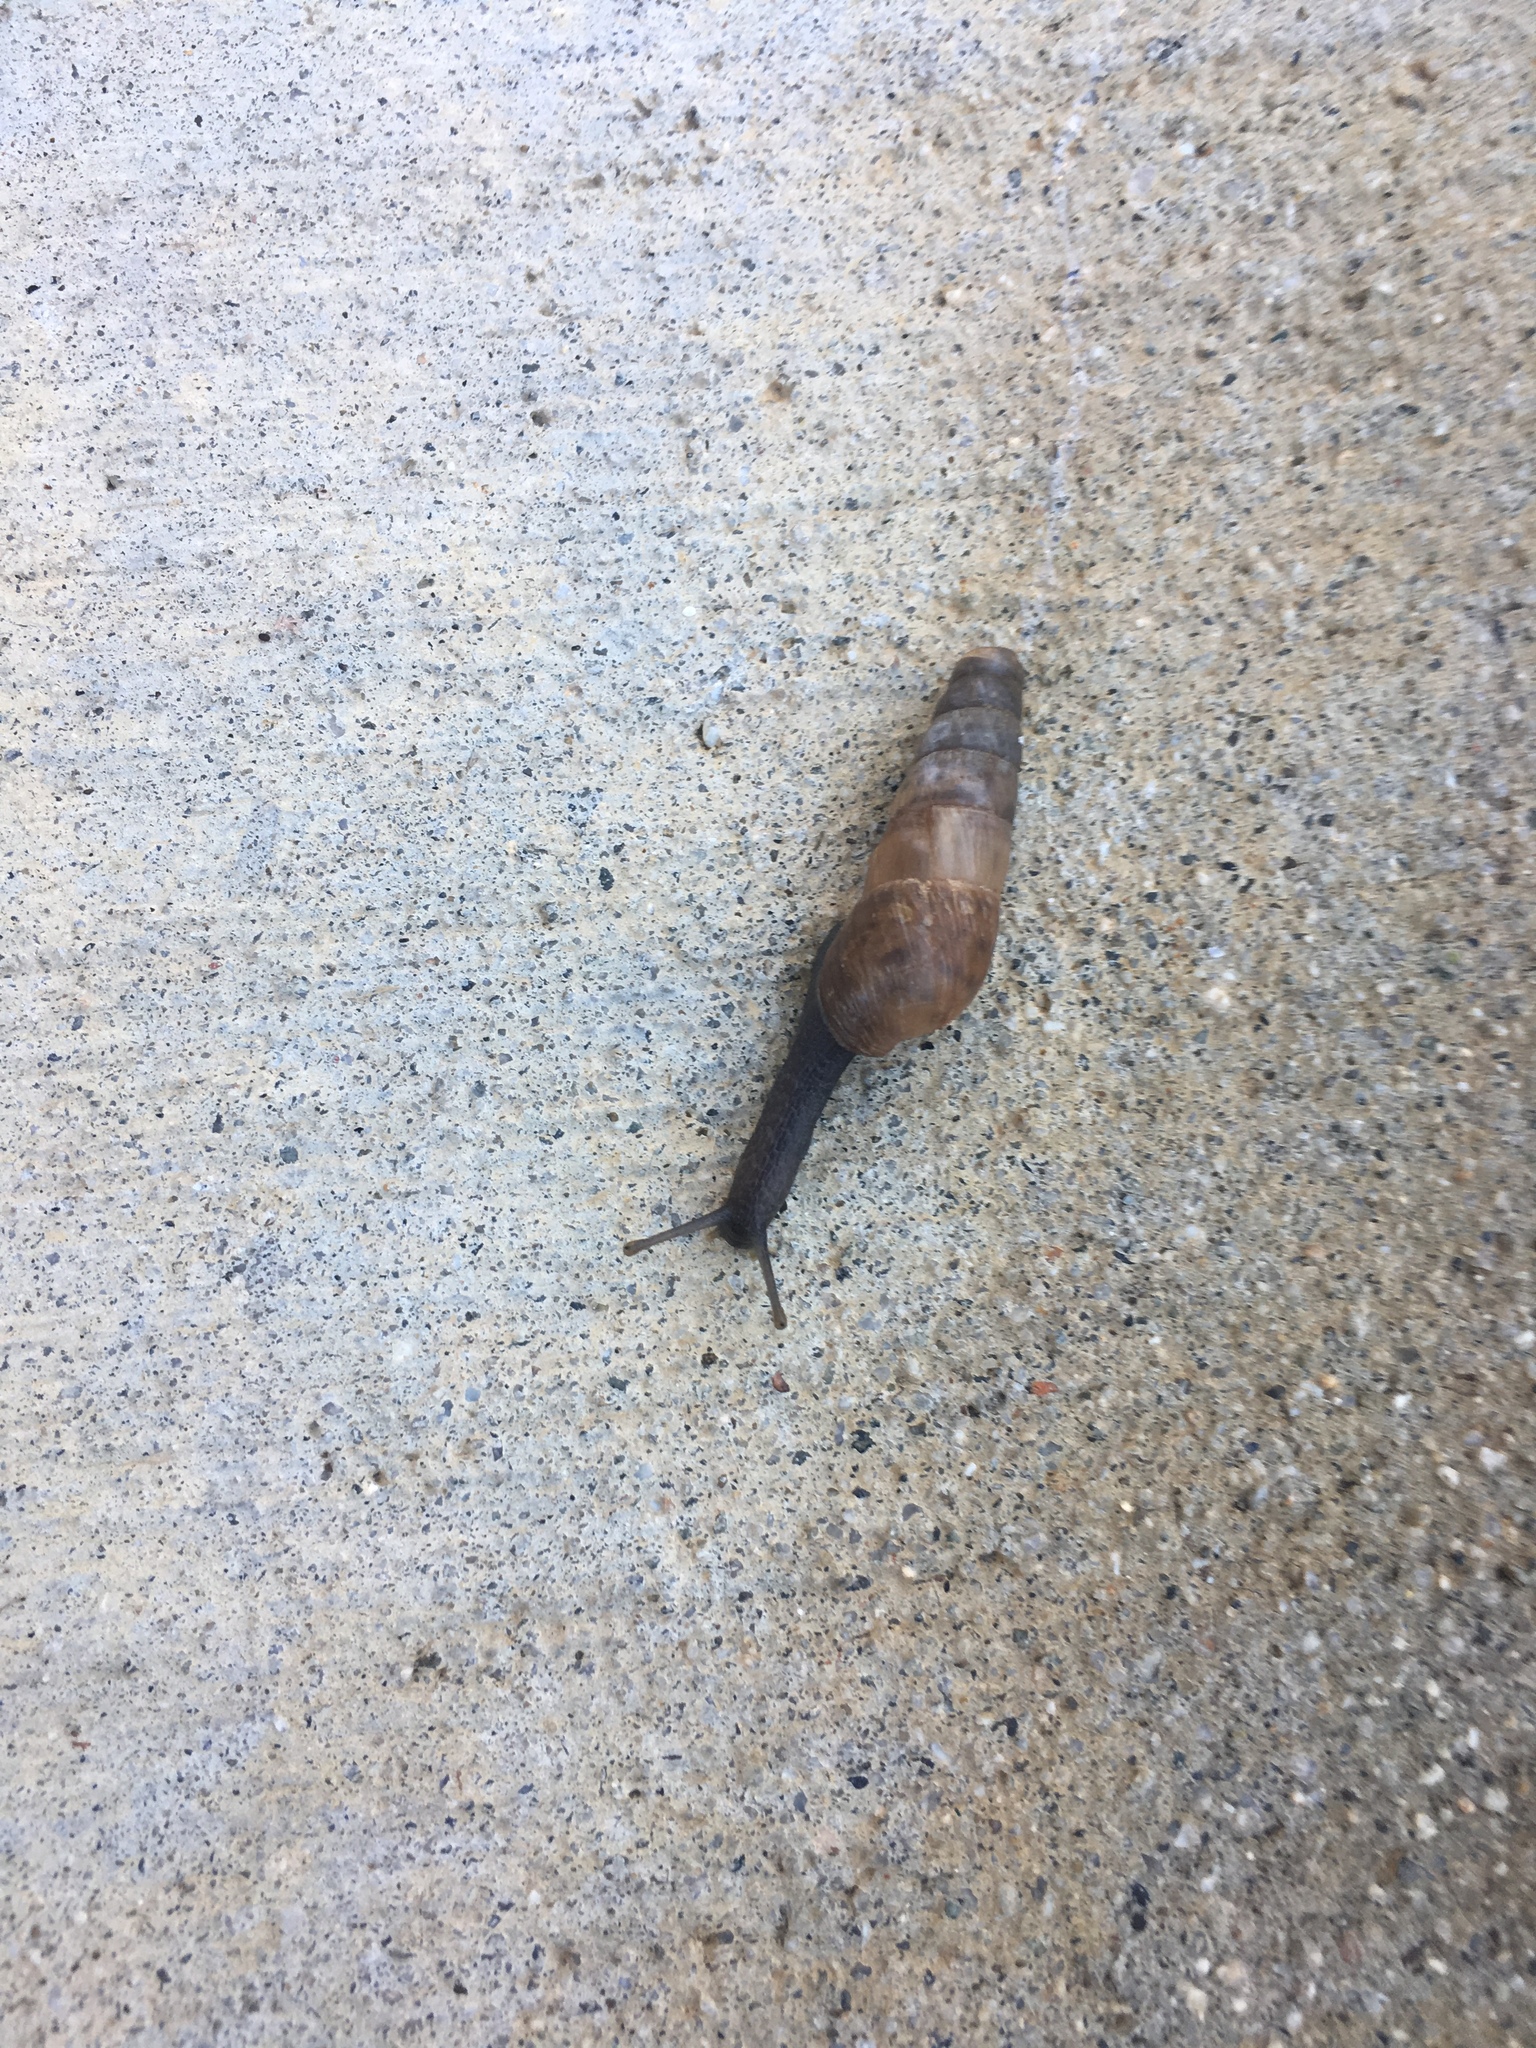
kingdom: Animalia
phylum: Mollusca
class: Gastropoda
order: Stylommatophora
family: Achatinidae
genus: Rumina
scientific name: Rumina decollata
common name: Decollate snail
